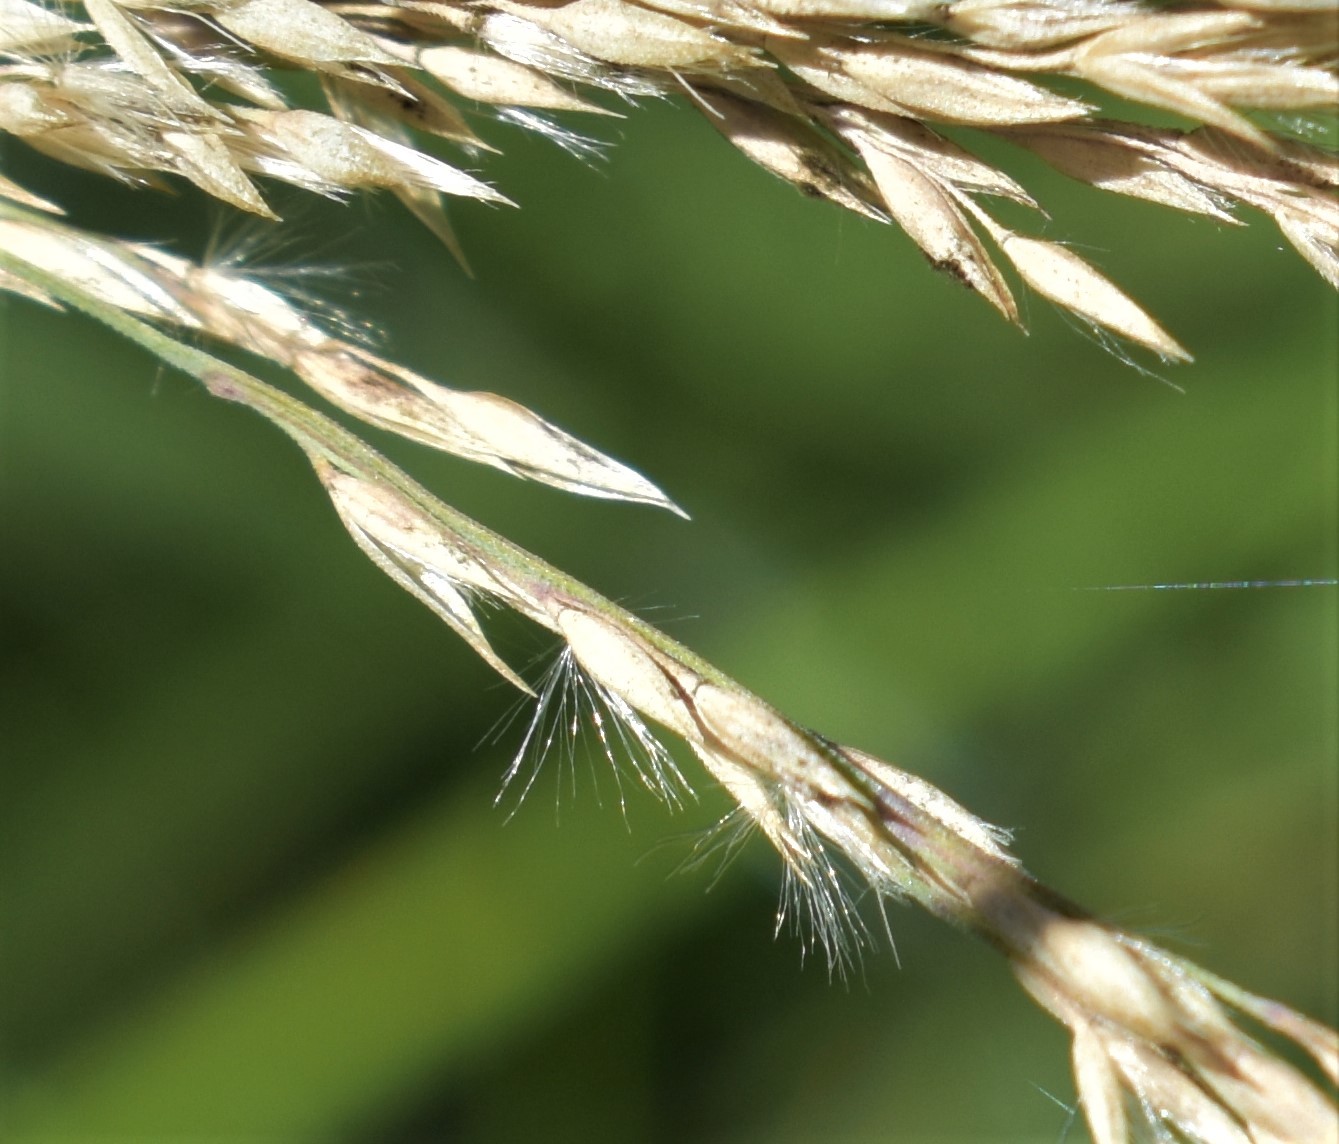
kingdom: Plantae
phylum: Tracheophyta
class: Liliopsida
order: Poales
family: Poaceae
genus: Calamagrostis
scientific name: Calamagrostis stricta
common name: Narrow small-reed
